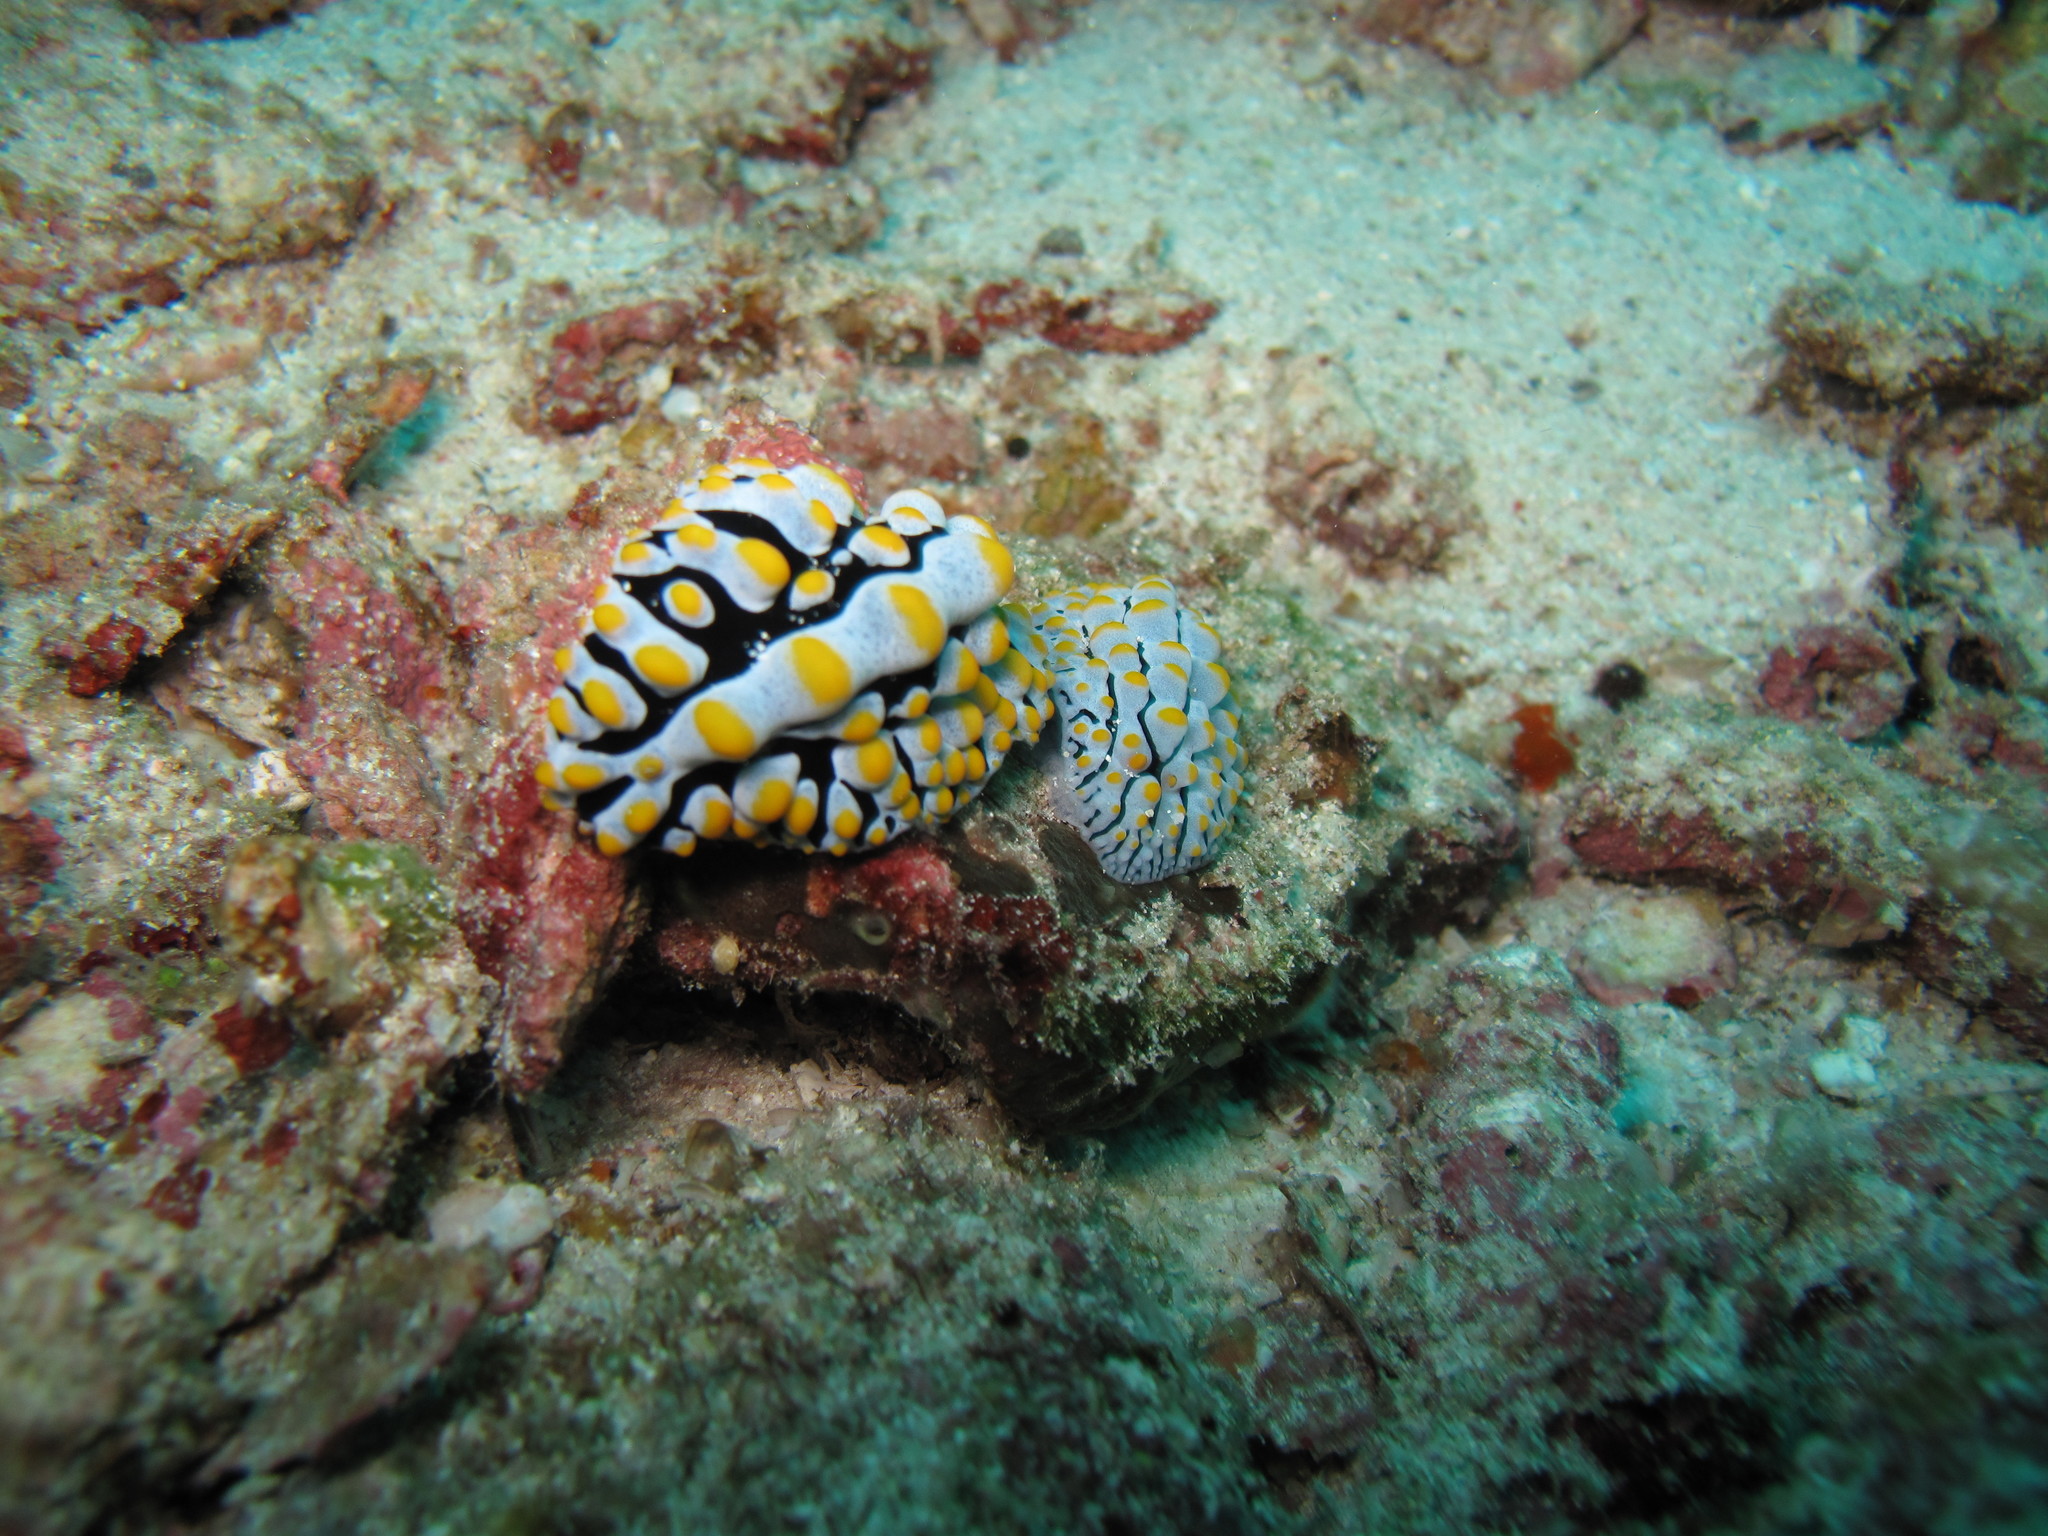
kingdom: Animalia
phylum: Mollusca
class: Gastropoda
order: Nudibranchia
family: Phyllidiidae
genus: Phyllidia
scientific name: Phyllidia varicosa
